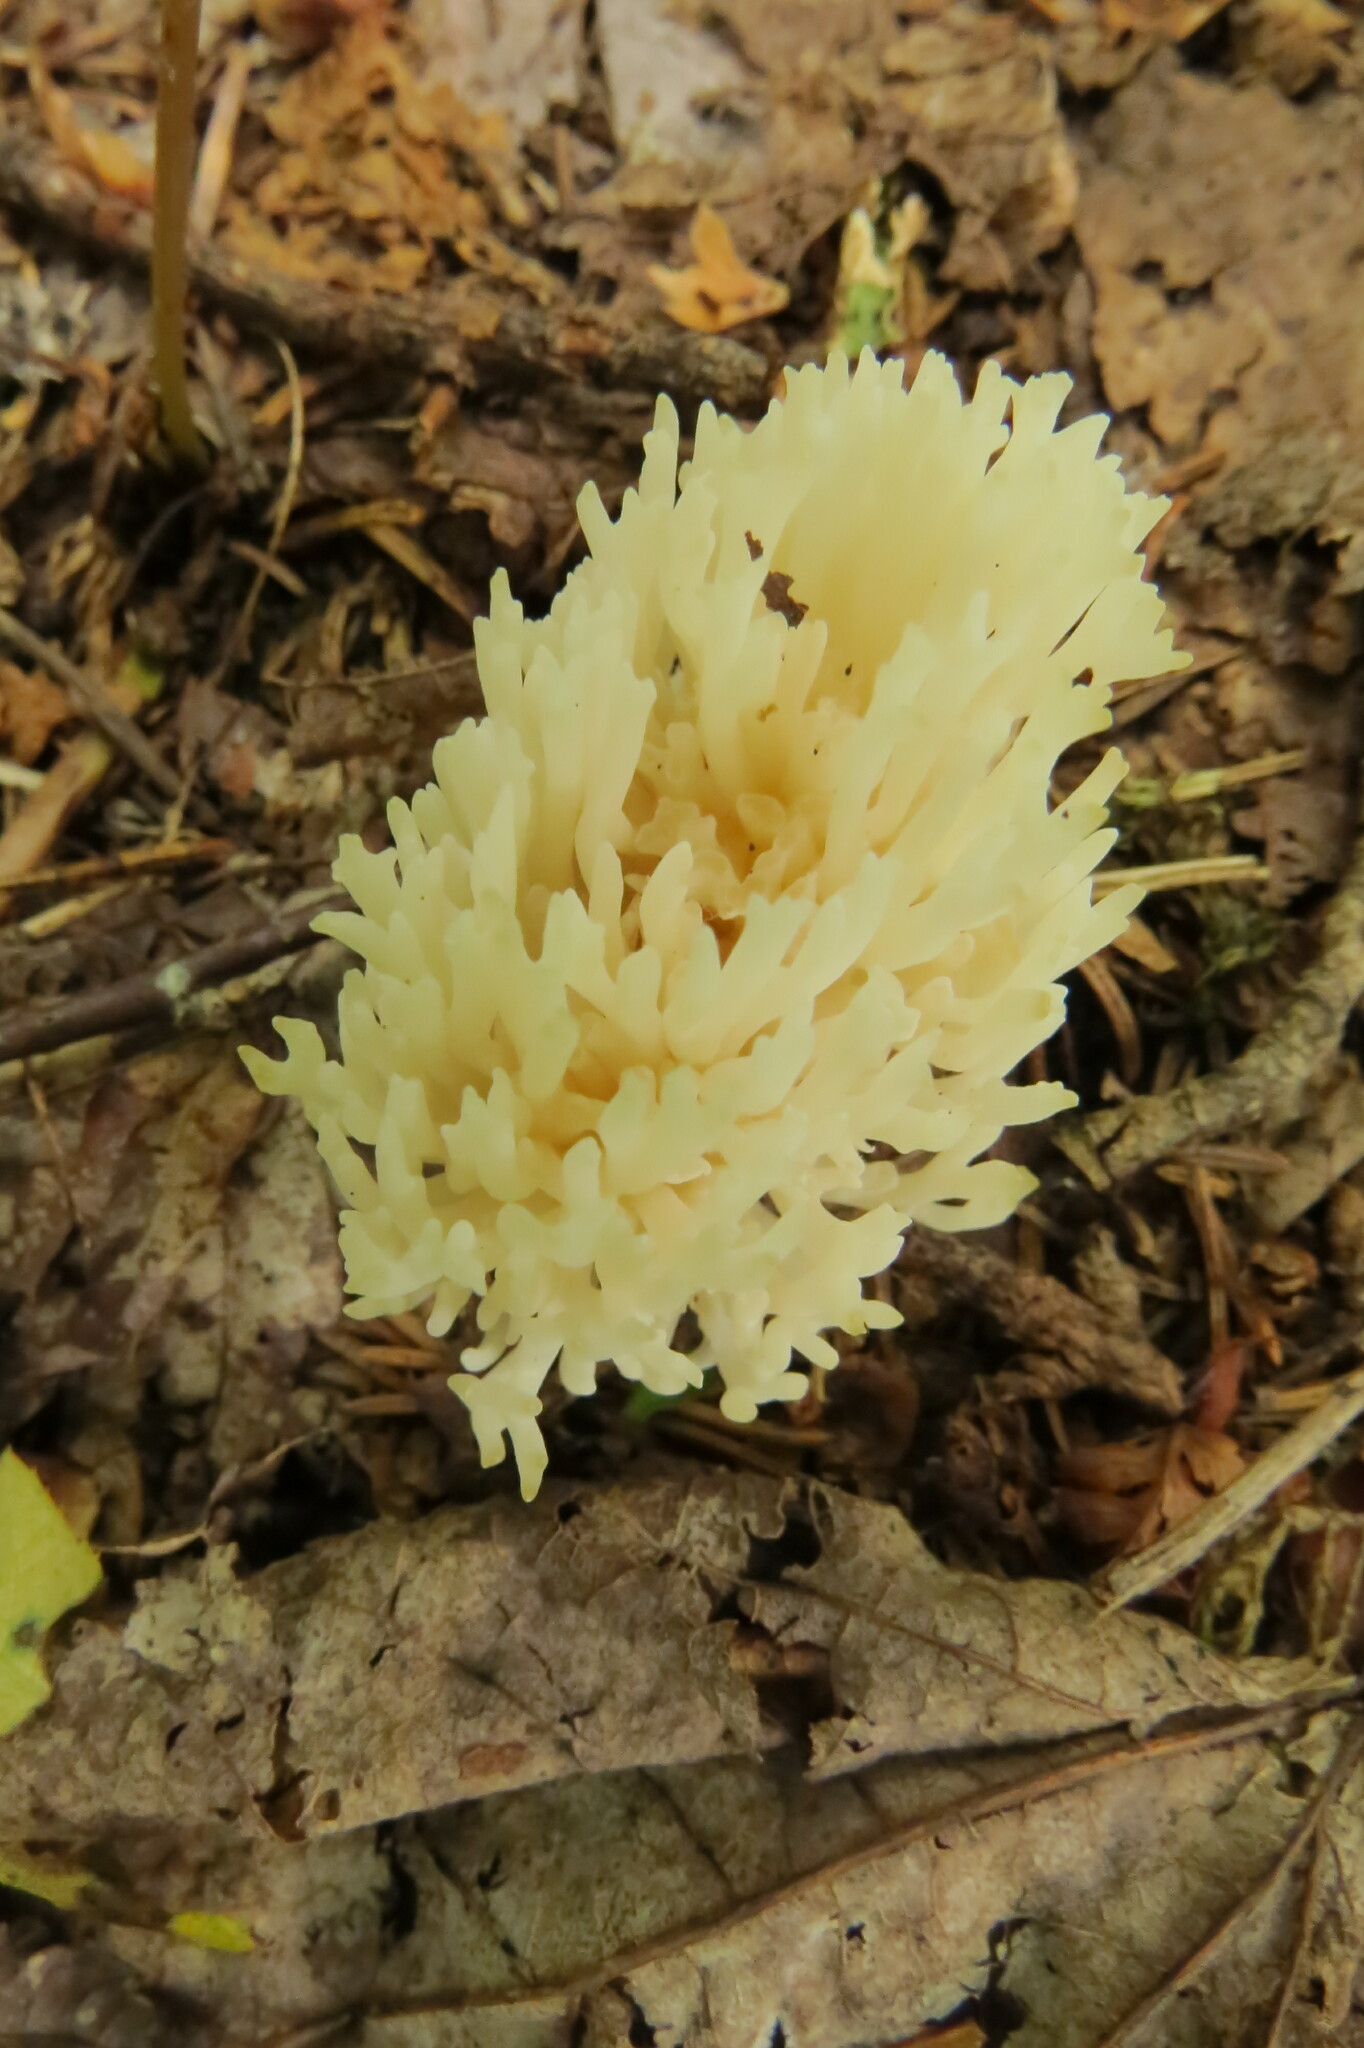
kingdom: Fungi
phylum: Basidiomycota
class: Agaricomycetes
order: Agaricales
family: Clavariaceae
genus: Ramariopsis
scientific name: Ramariopsis kunzei
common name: Ivory coral
